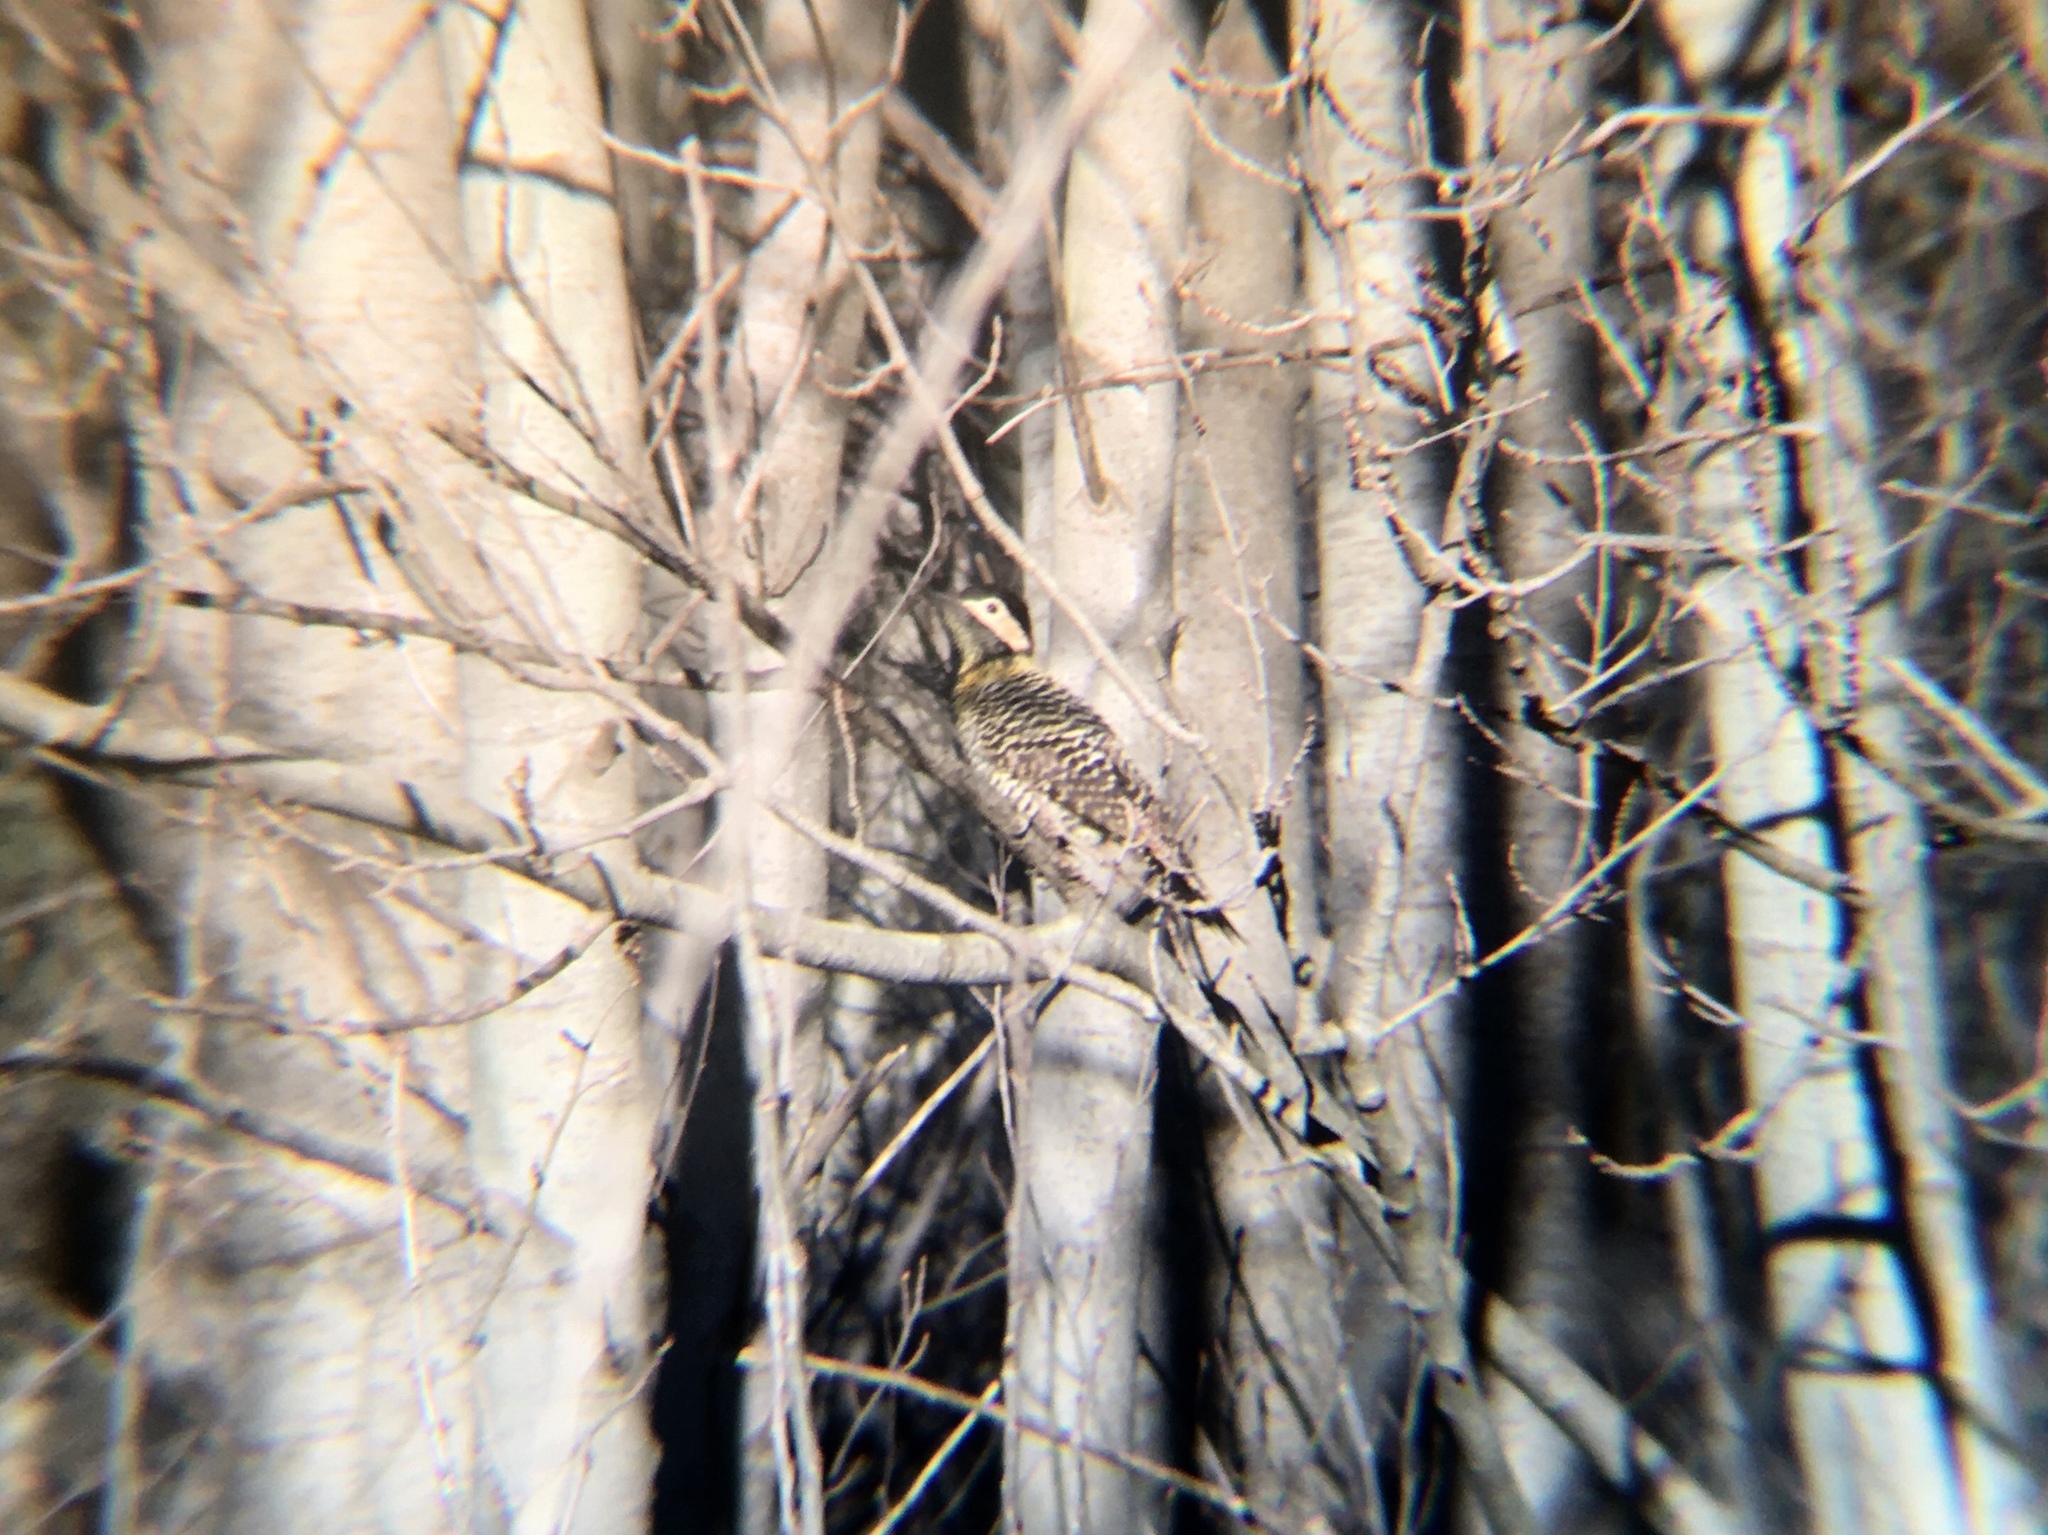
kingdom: Animalia
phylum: Chordata
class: Aves
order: Piciformes
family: Picidae
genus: Colaptes
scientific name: Colaptes melanochloros
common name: Green-barred woodpecker
